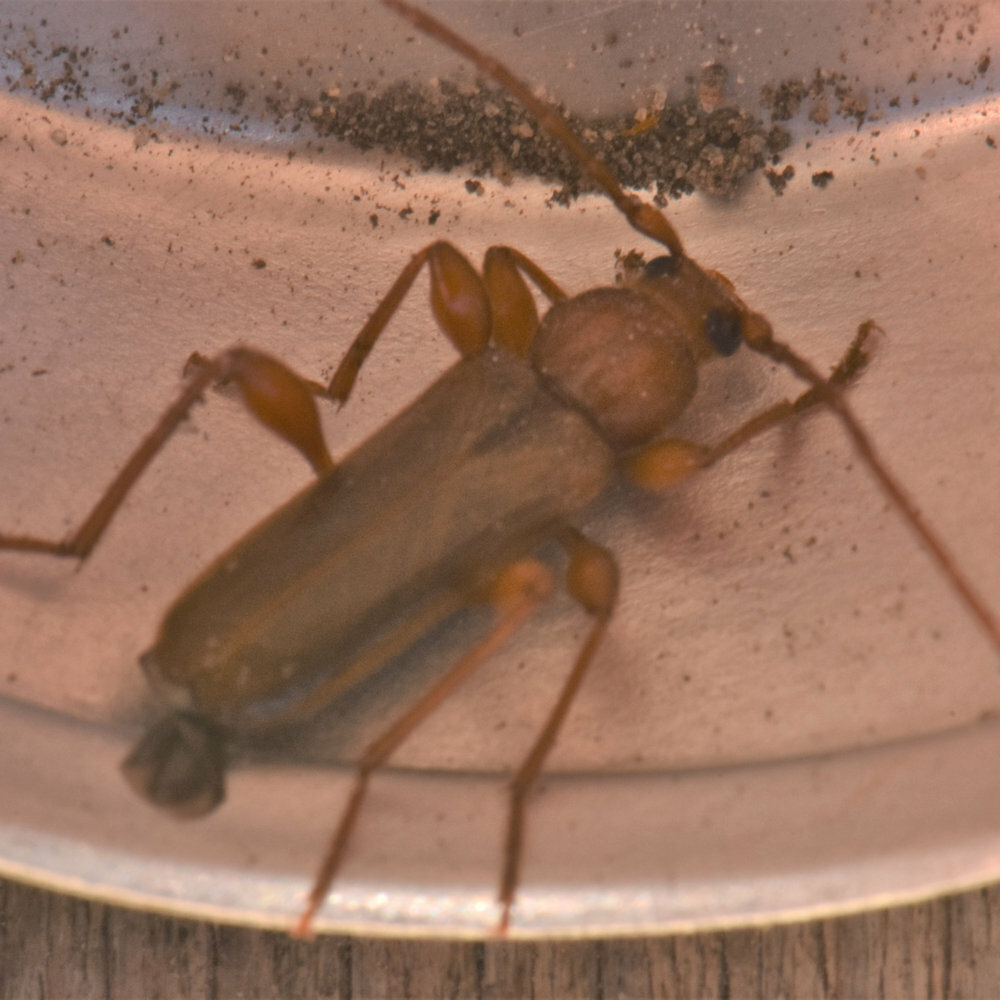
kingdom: Animalia
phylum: Arthropoda
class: Insecta
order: Coleoptera
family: Cerambycidae
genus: Phymatodes
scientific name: Phymatodes testaceus
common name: Long-horned beetle
